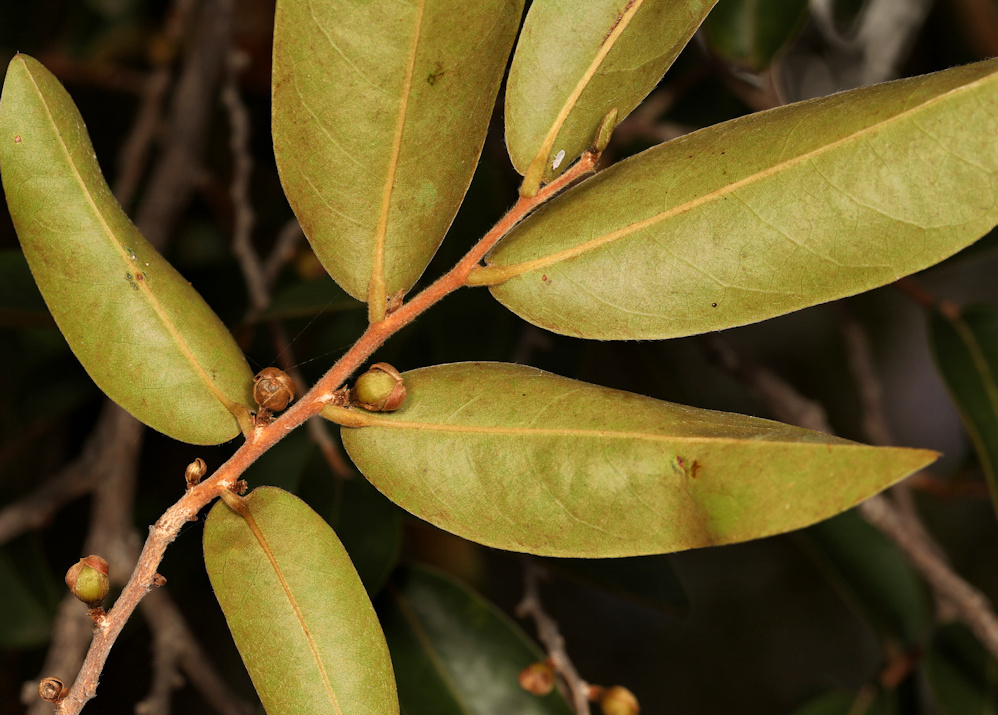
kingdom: Plantae
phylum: Tracheophyta
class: Magnoliopsida
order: Magnoliales
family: Annonaceae
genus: Hexalobus
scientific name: Hexalobus monopetalus
